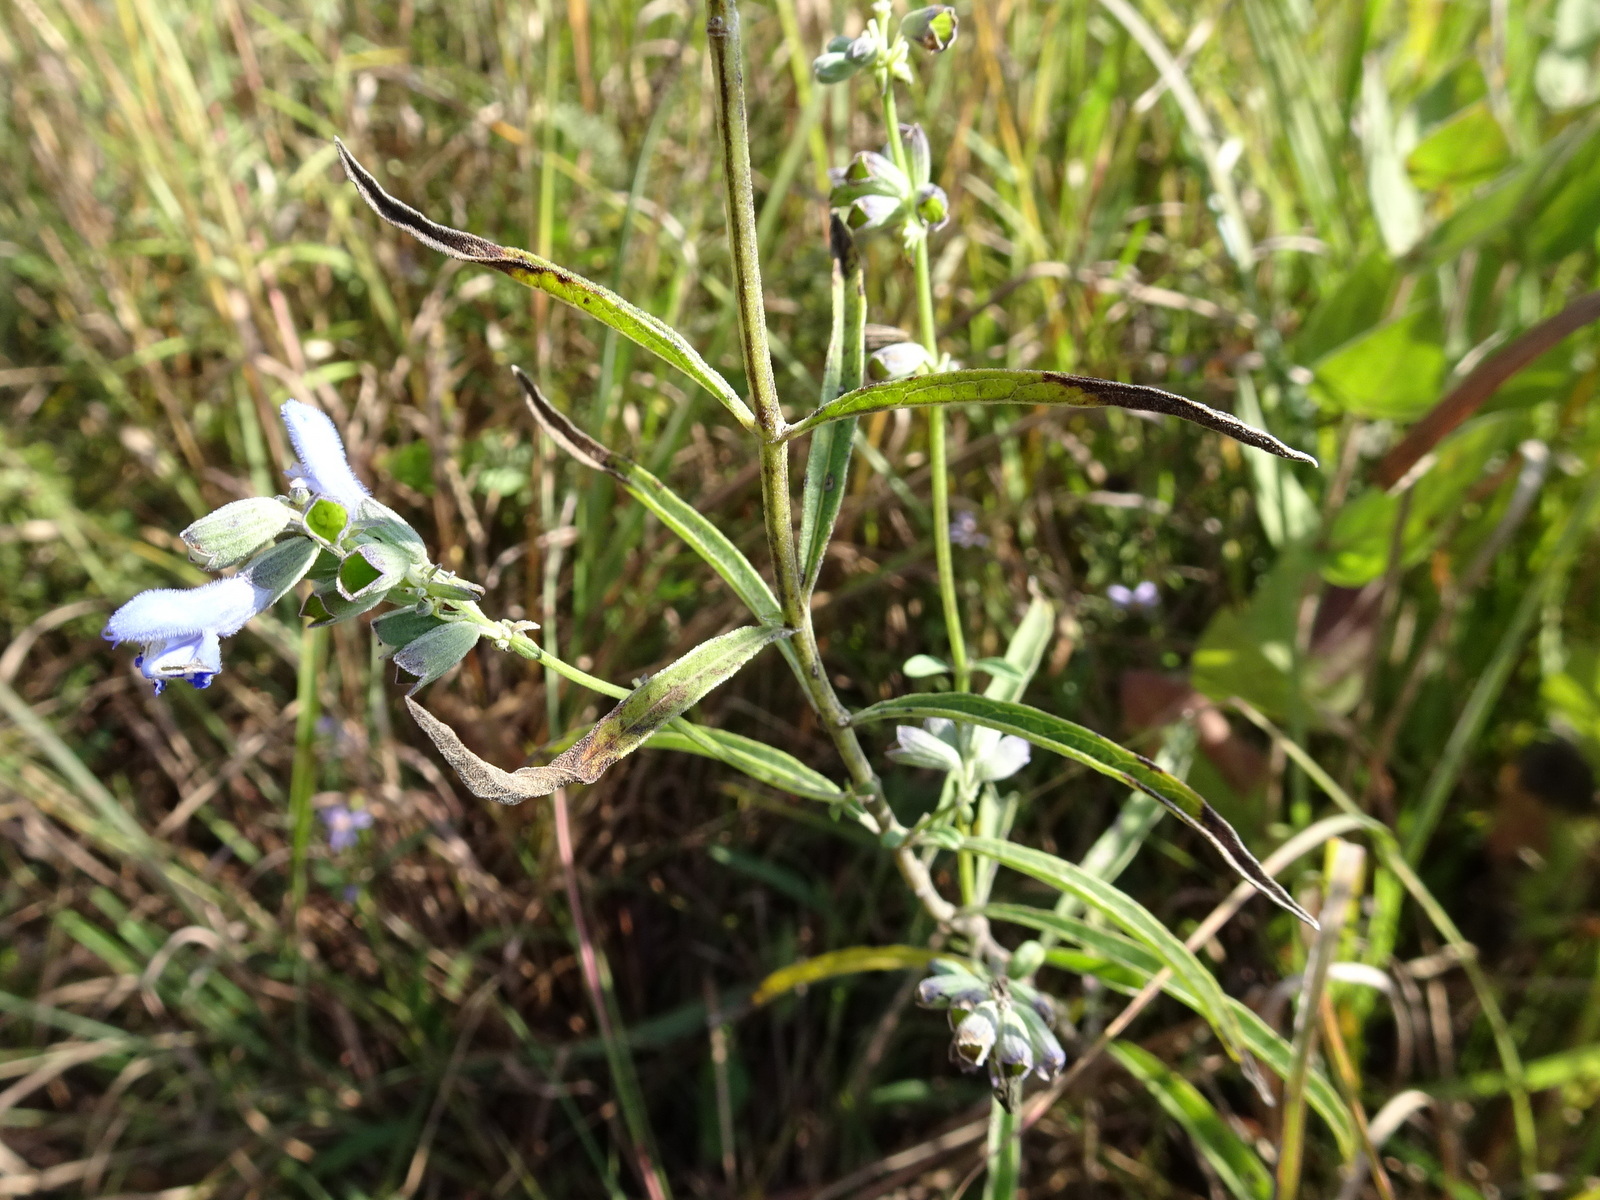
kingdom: Plantae
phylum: Tracheophyta
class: Magnoliopsida
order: Lamiales
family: Lamiaceae
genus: Salvia
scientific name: Salvia azurea
